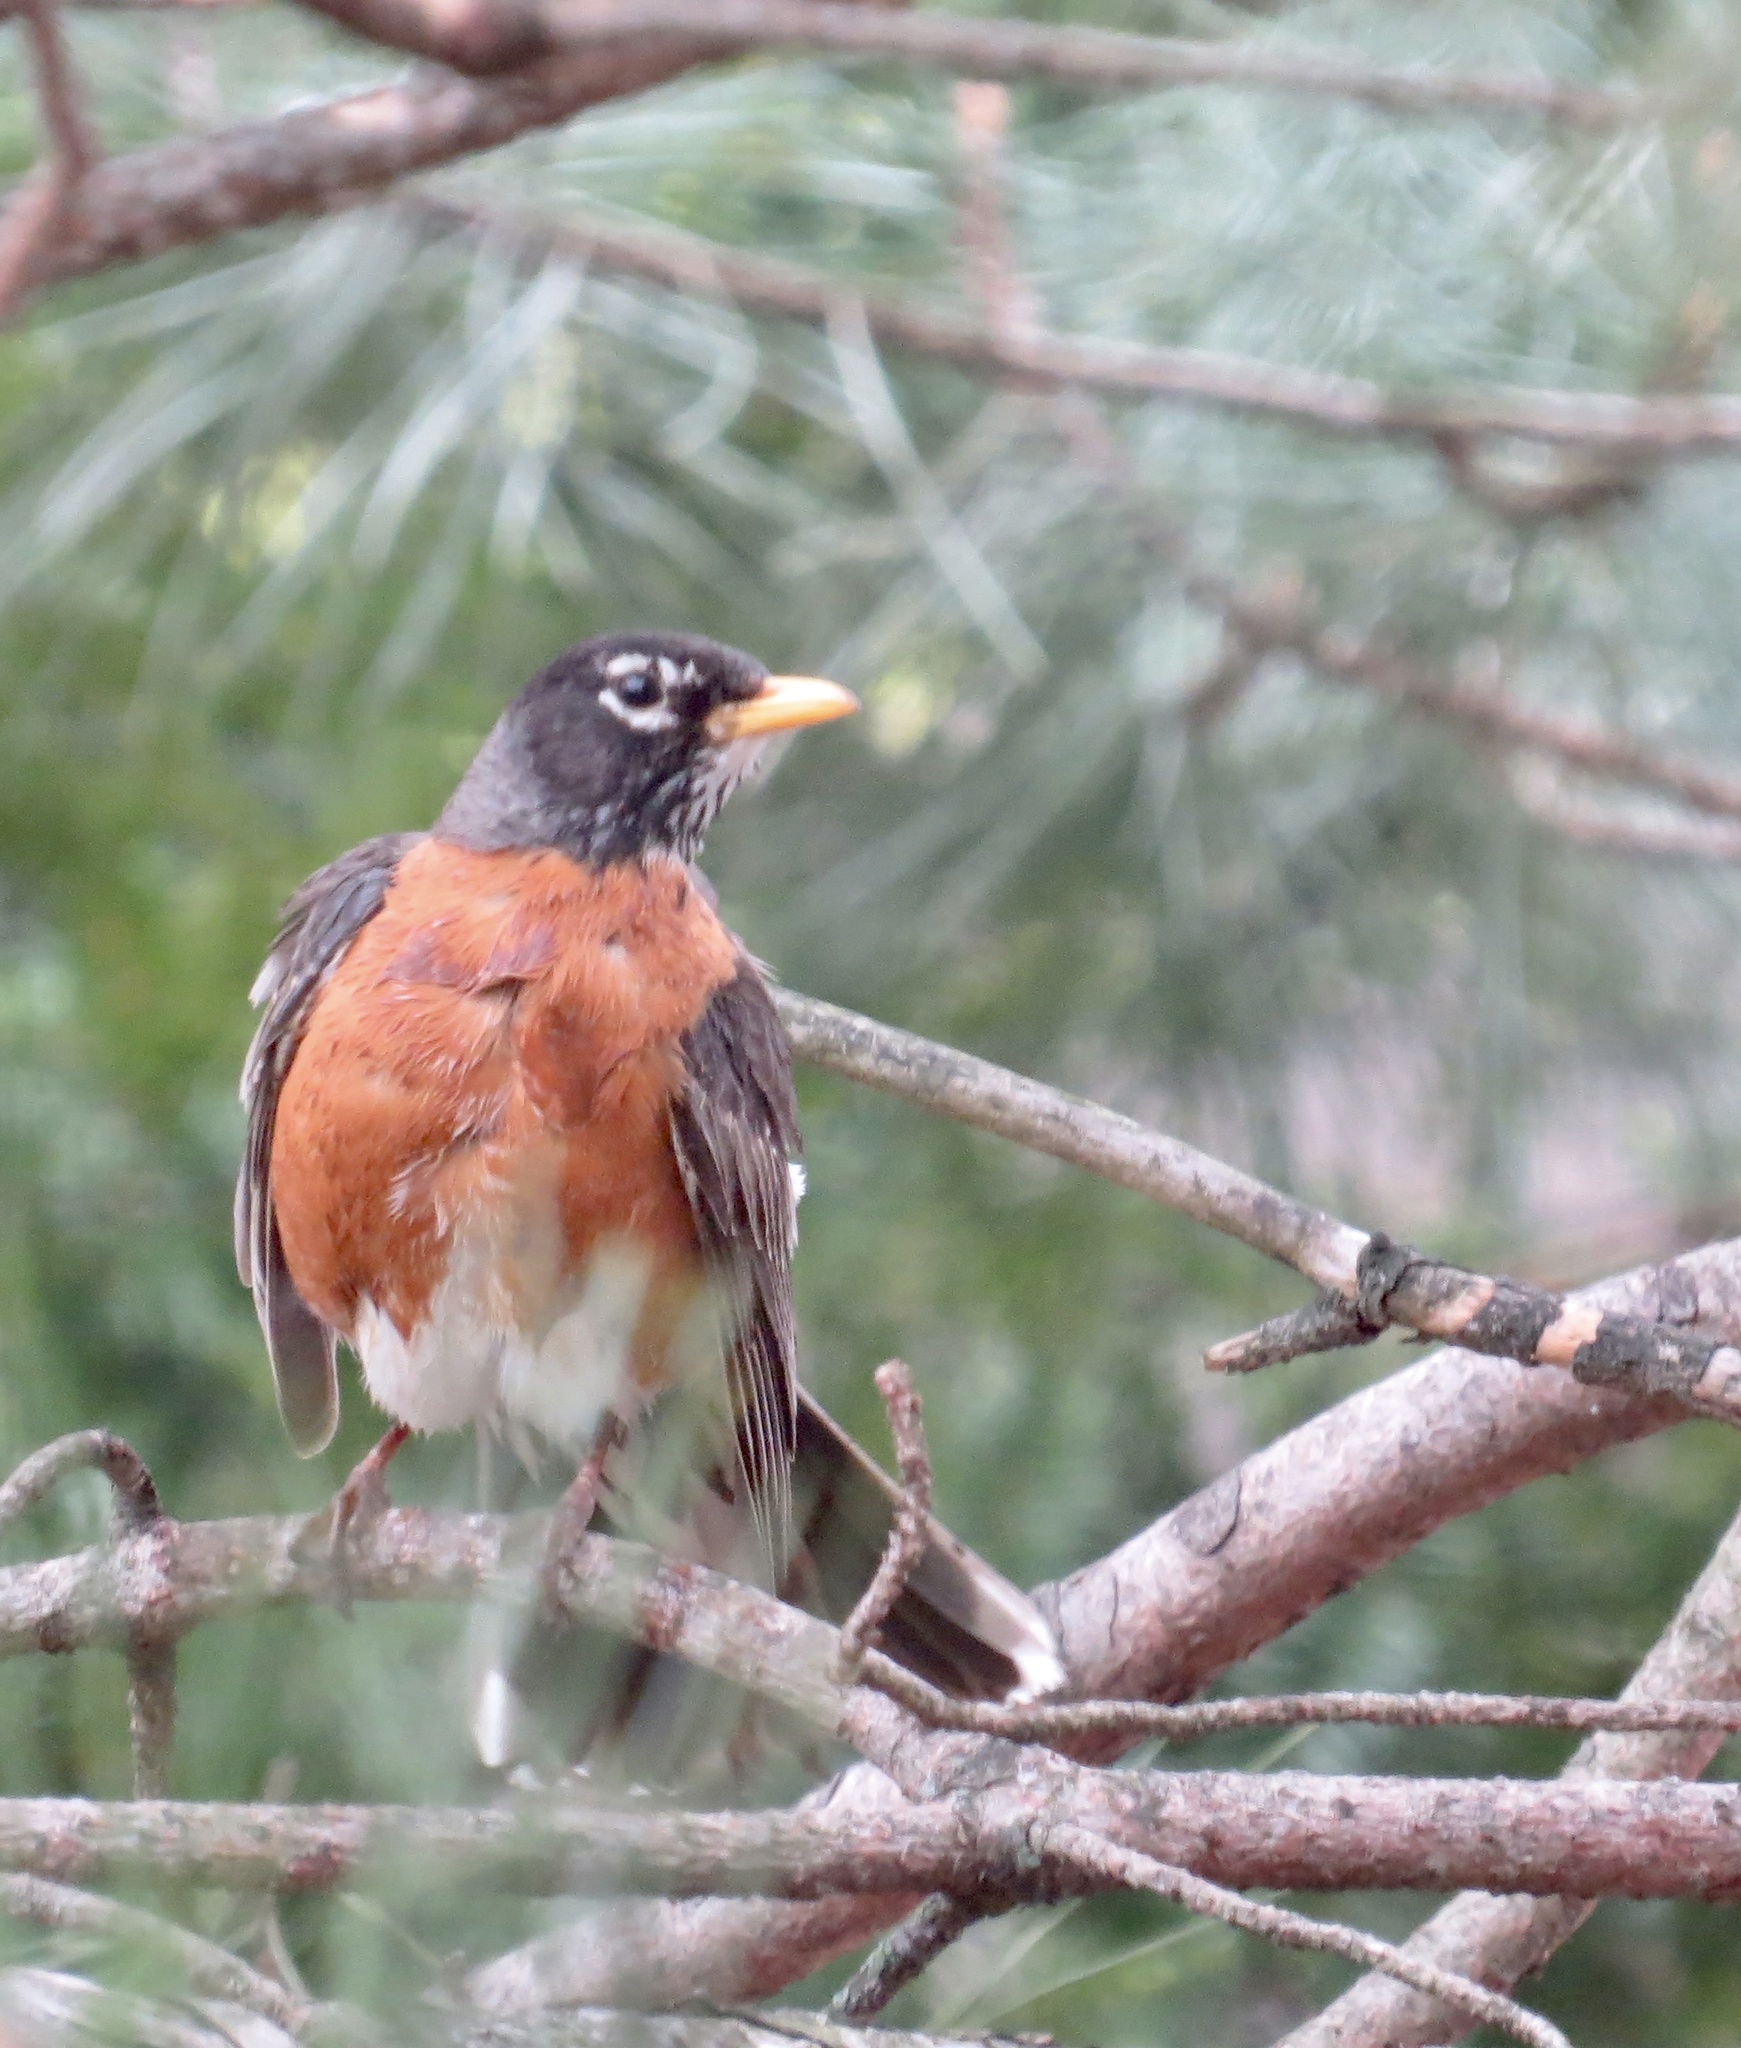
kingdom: Animalia
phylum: Chordata
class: Aves
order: Passeriformes
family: Turdidae
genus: Turdus
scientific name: Turdus migratorius
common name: American robin
